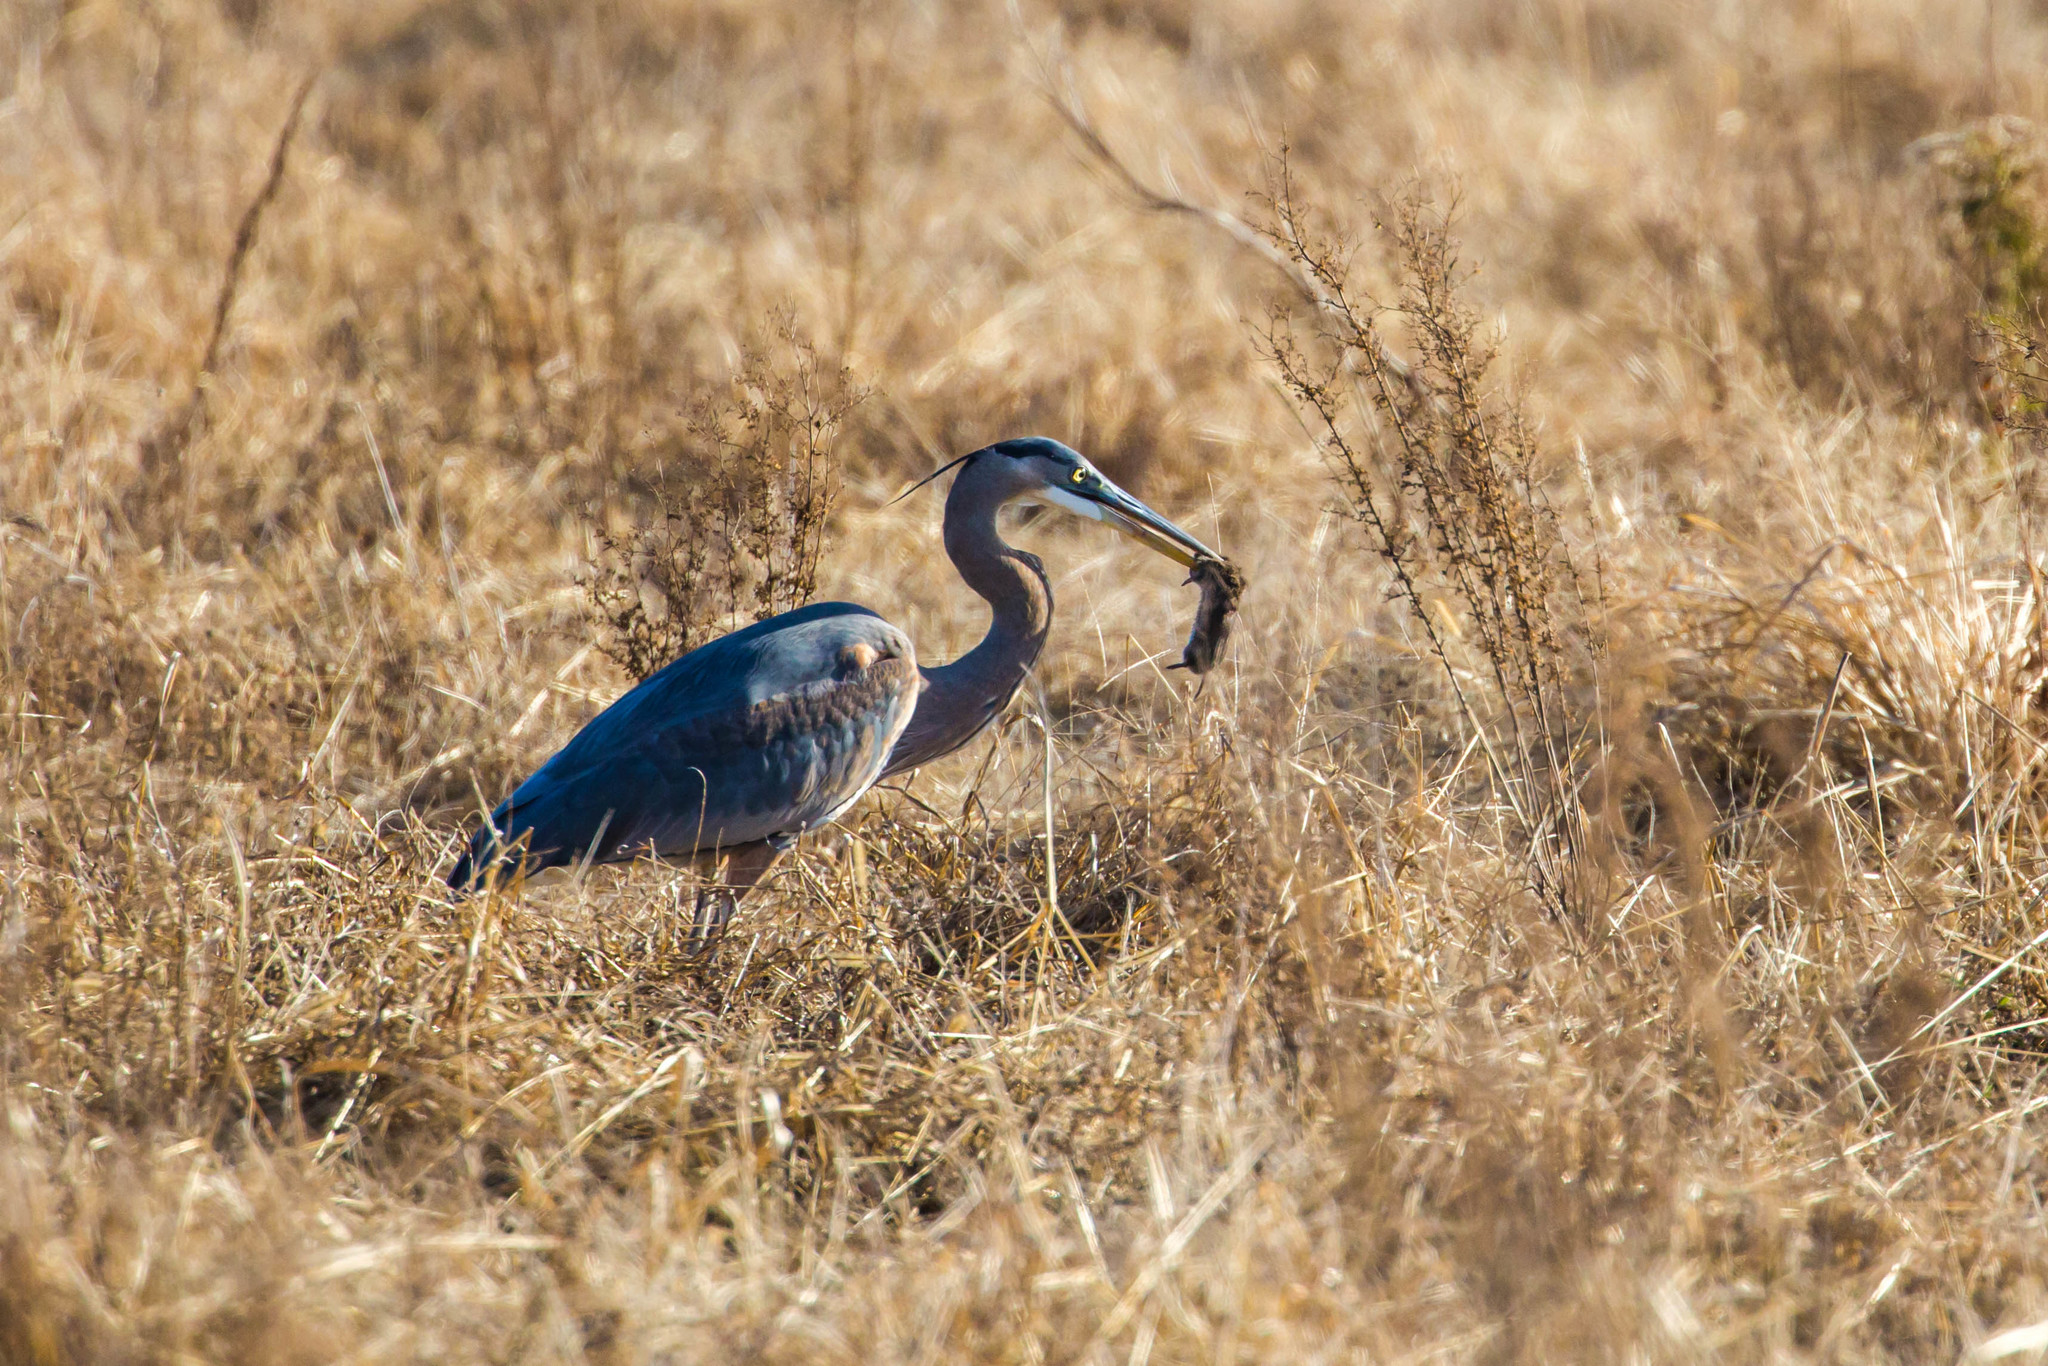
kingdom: Animalia
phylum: Chordata
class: Aves
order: Pelecaniformes
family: Ardeidae
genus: Ardea
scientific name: Ardea herodias
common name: Great blue heron
